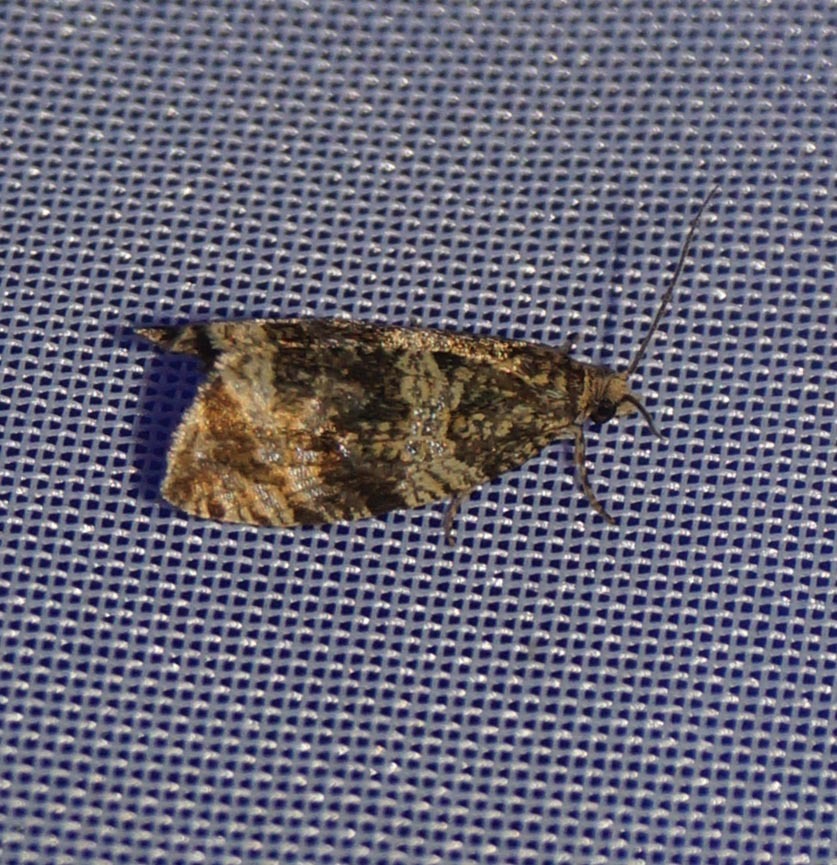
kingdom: Animalia
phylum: Arthropoda
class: Insecta
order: Lepidoptera
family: Tortricidae
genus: Syricoris
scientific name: Syricoris lacunana
